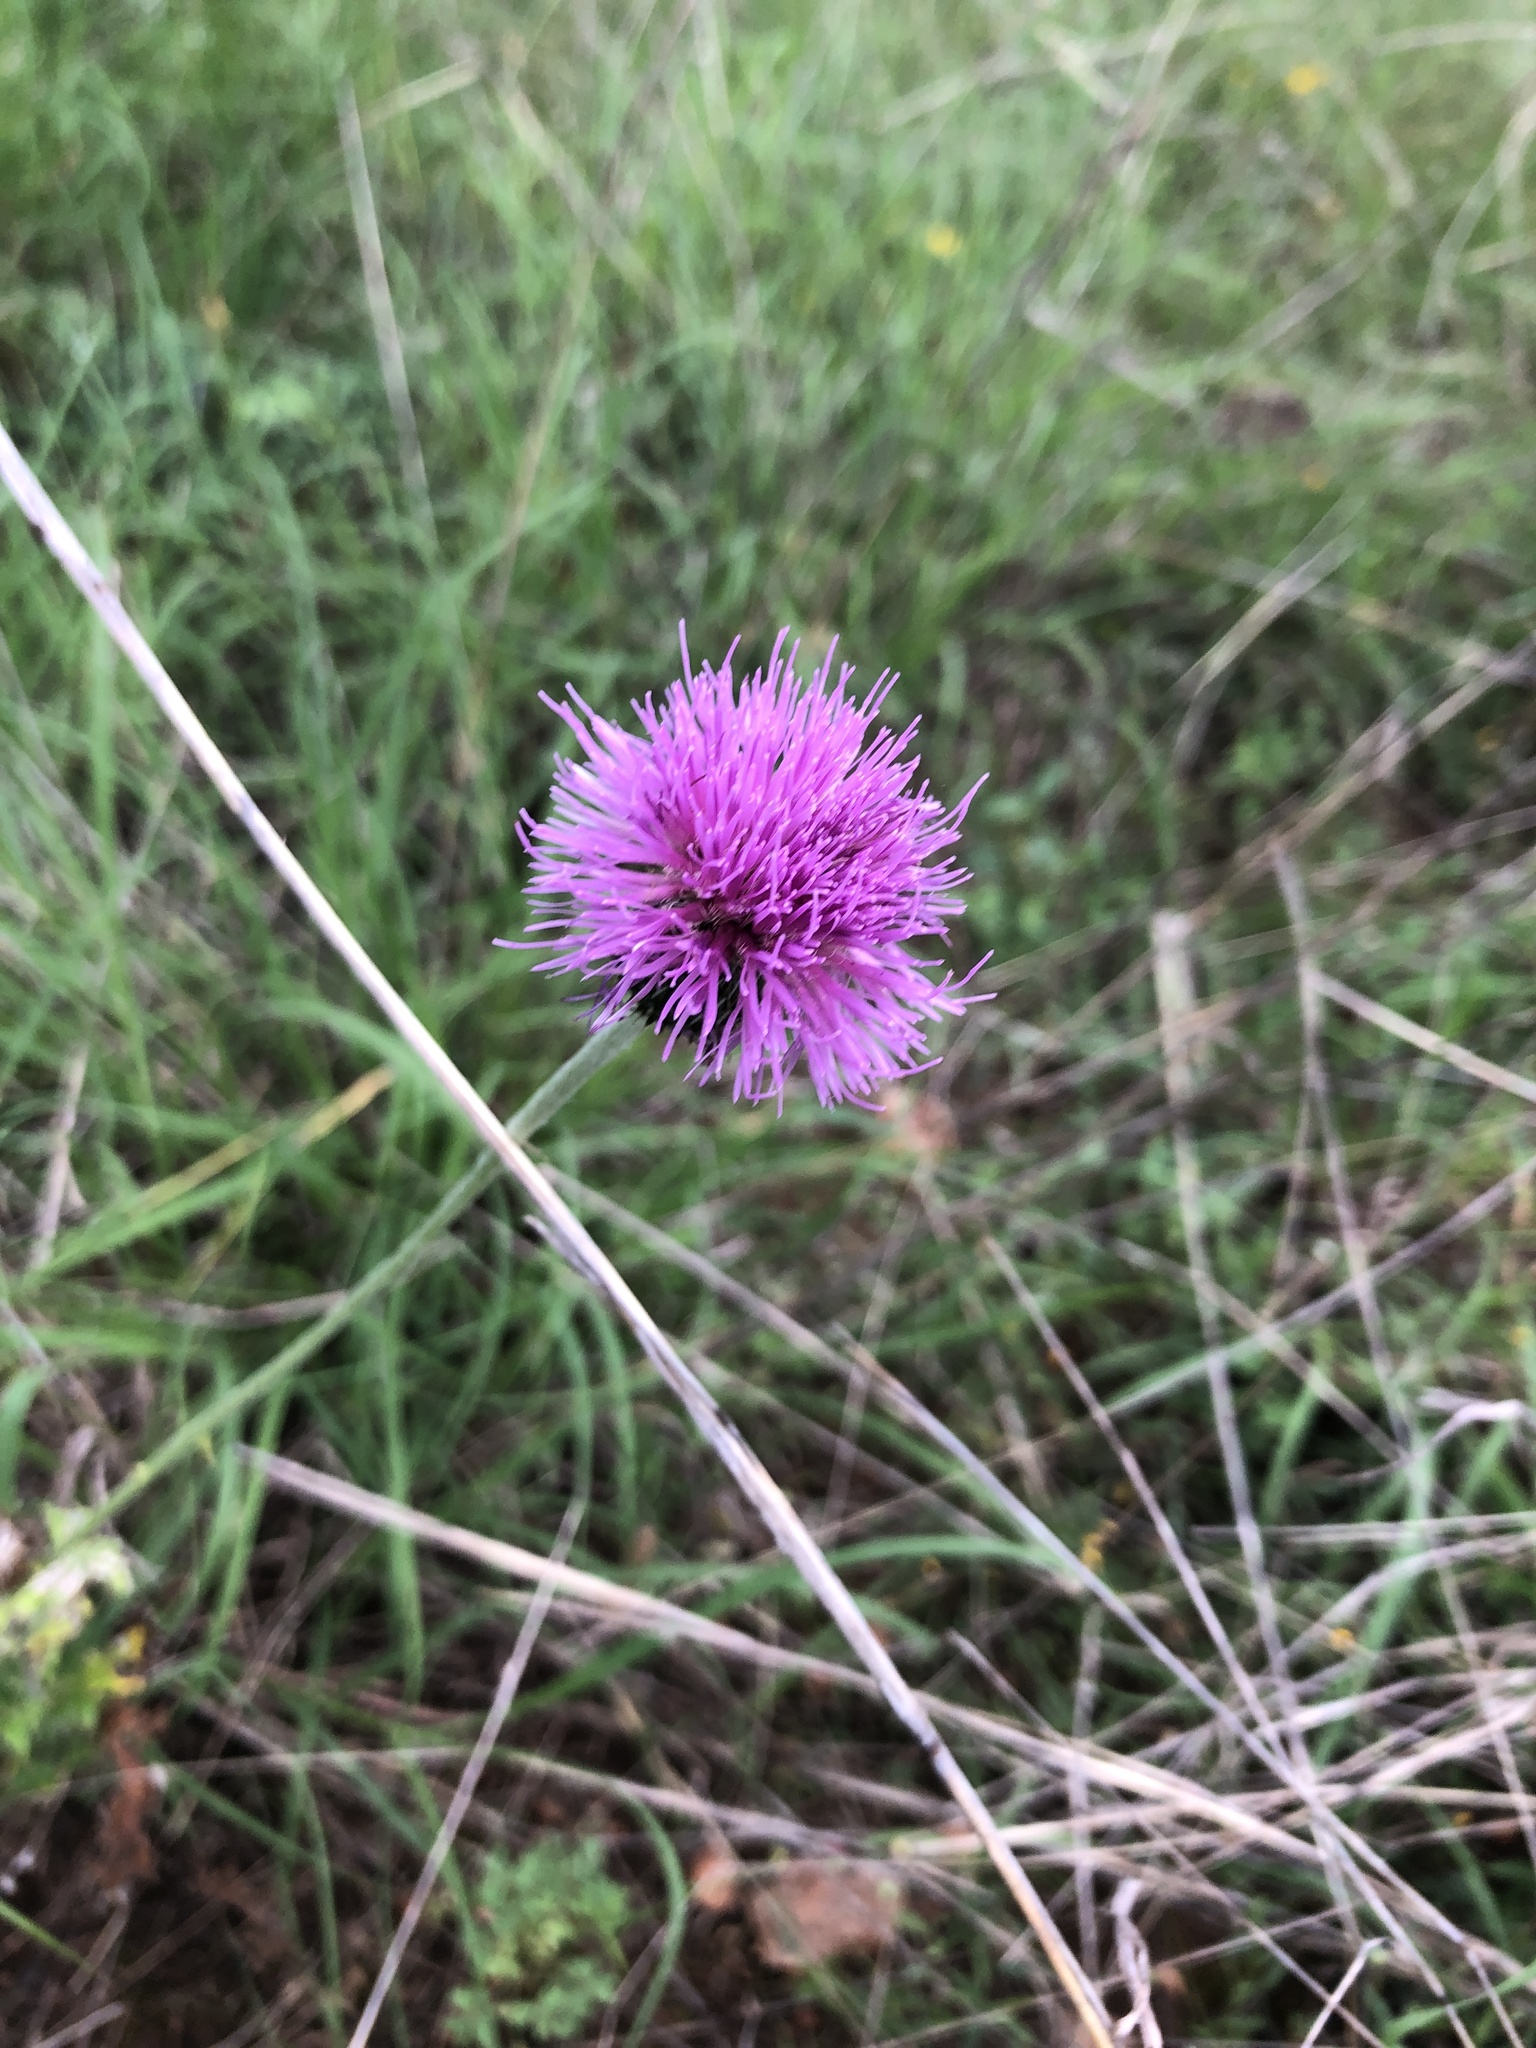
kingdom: Plantae
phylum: Tracheophyta
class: Magnoliopsida
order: Asterales
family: Asteraceae
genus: Cirsium
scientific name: Cirsium texanum
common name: Texas purple thistle
